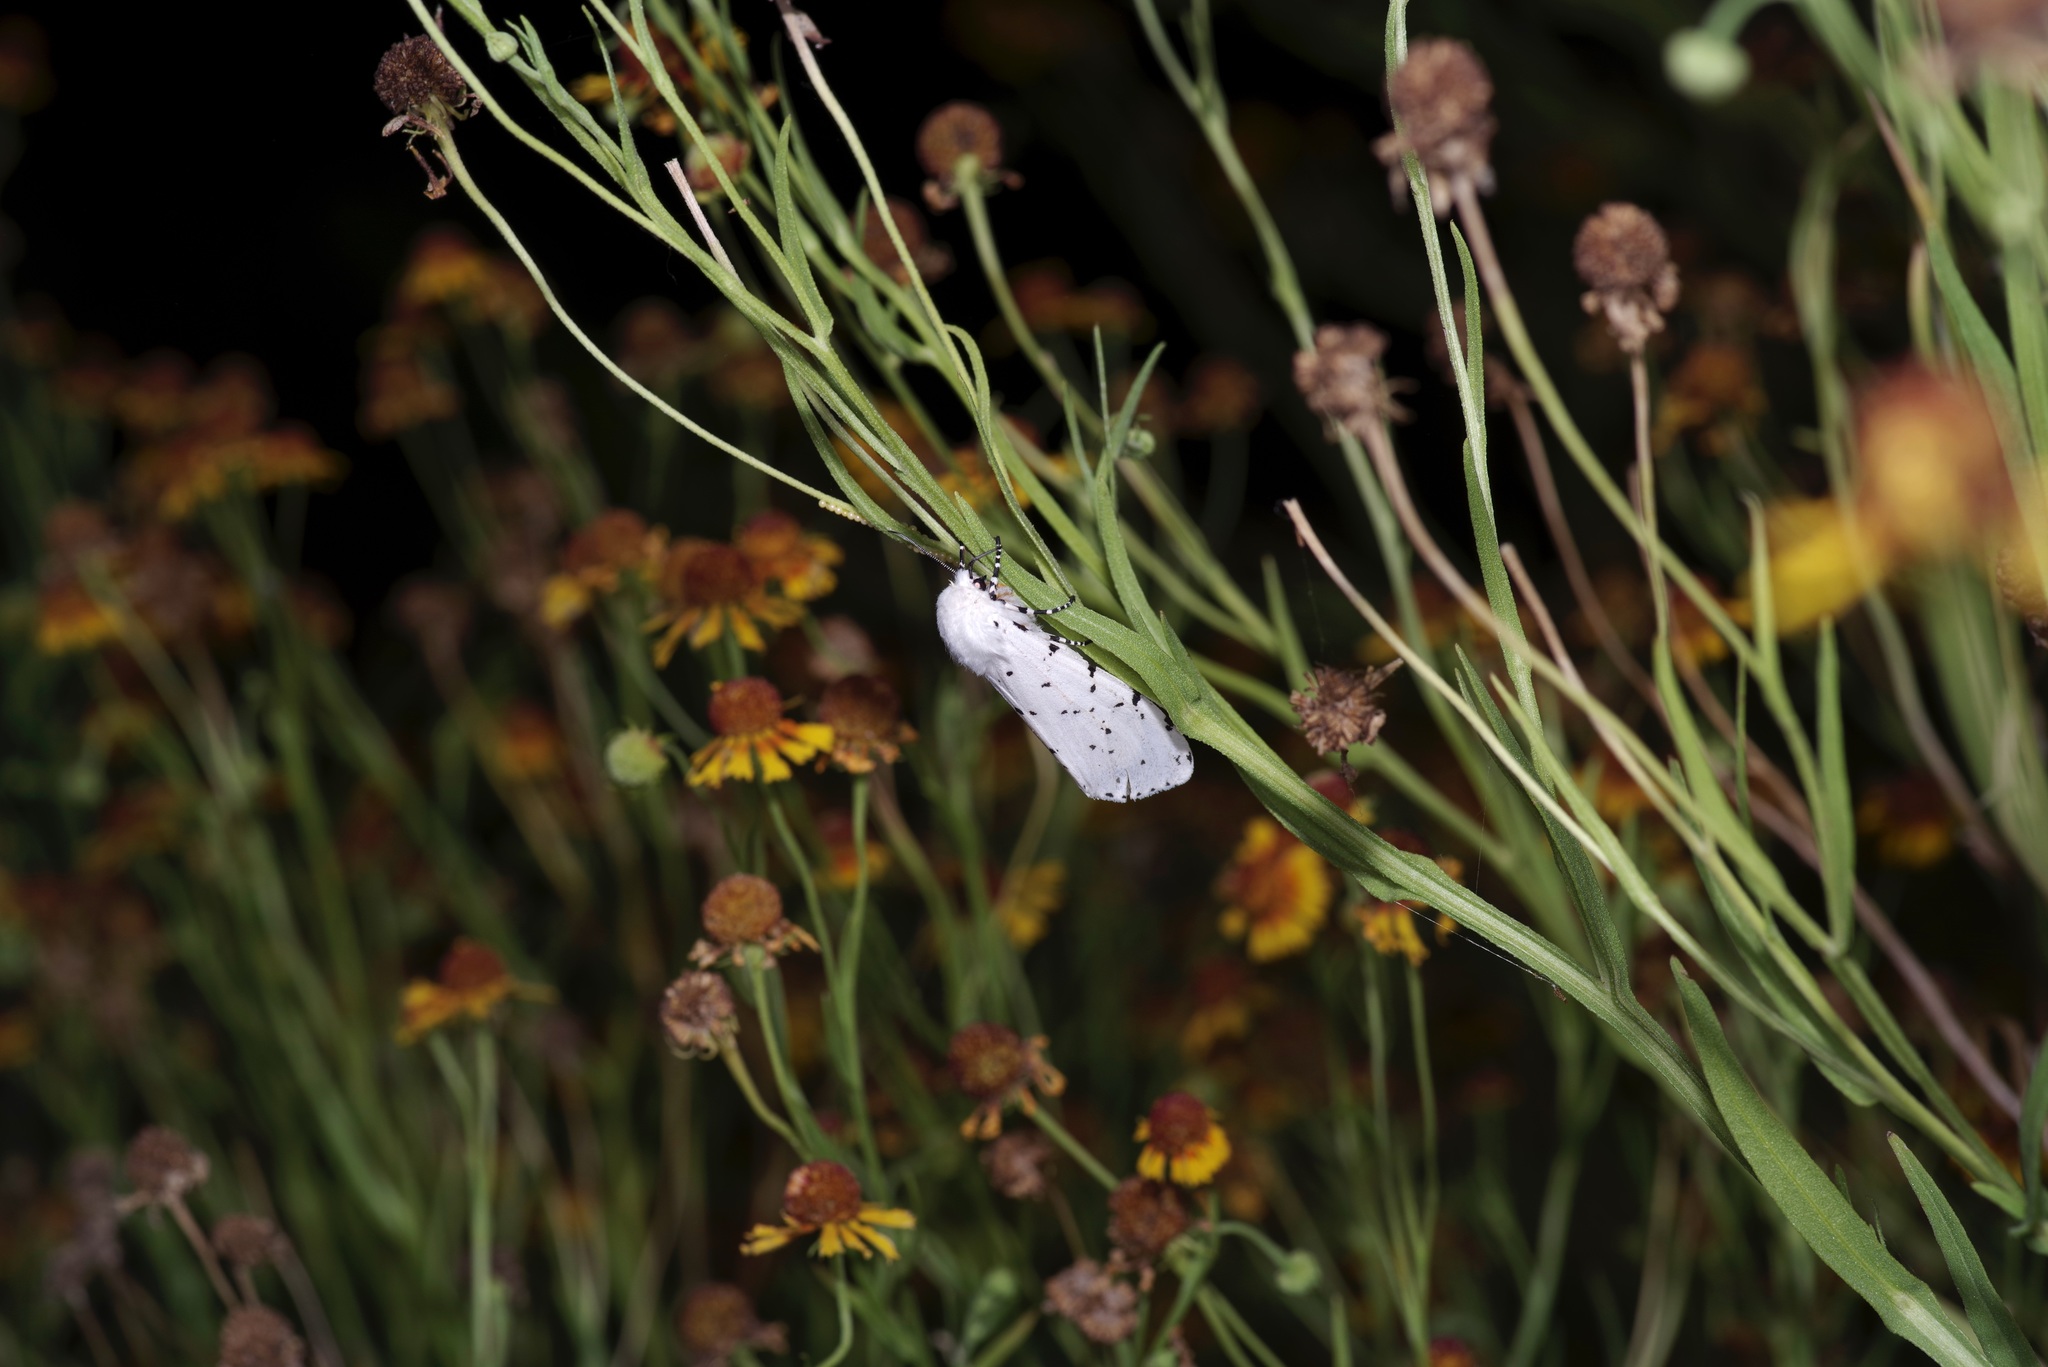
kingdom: Animalia
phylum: Arthropoda
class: Insecta
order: Lepidoptera
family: Erebidae
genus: Estigmene
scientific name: Estigmene acrea
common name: Salt marsh moth
